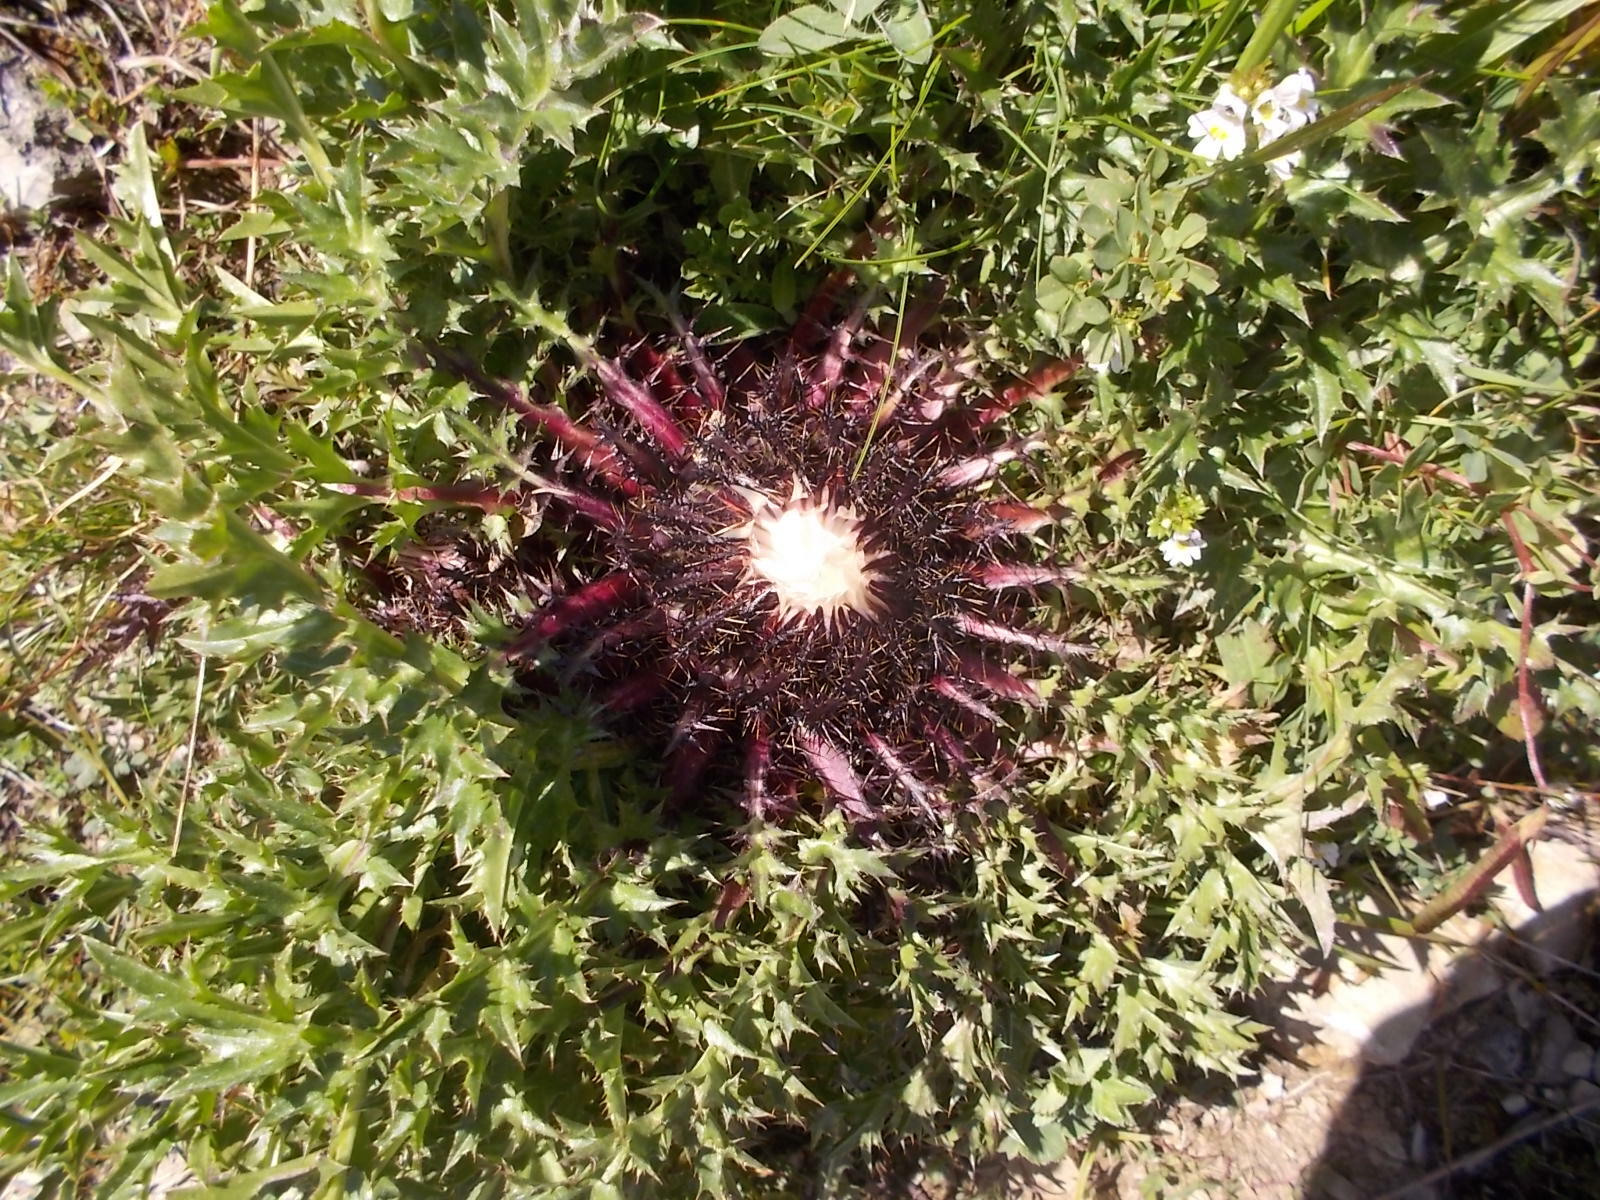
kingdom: Plantae
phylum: Tracheophyta
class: Magnoliopsida
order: Asterales
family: Asteraceae
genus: Carlina
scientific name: Carlina acaulis
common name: Stemless carline thistle
